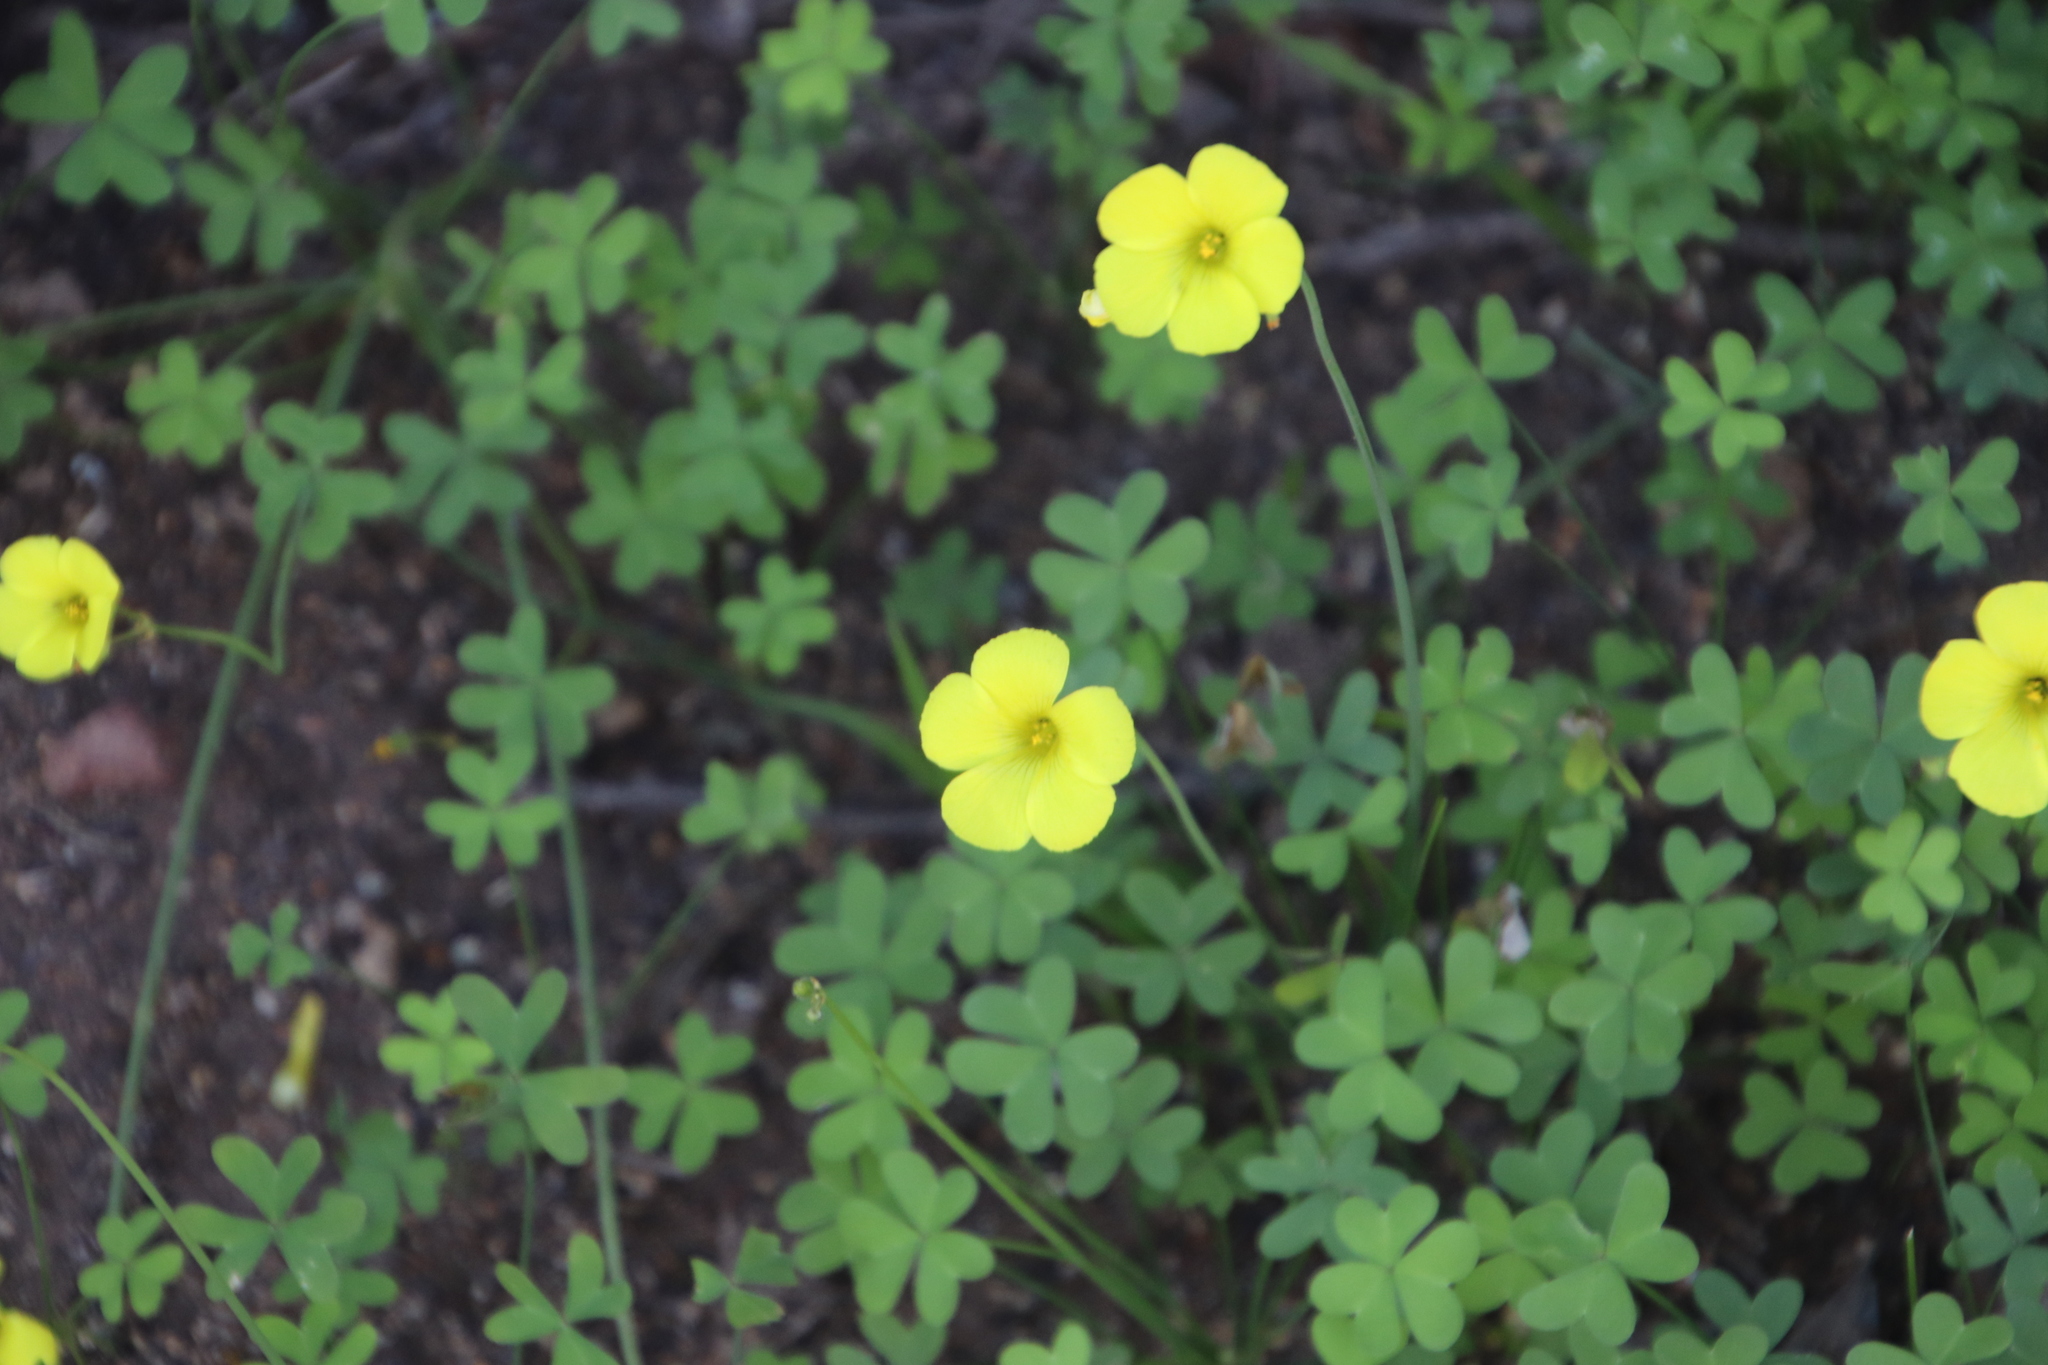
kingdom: Plantae
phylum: Tracheophyta
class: Magnoliopsida
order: Oxalidales
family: Oxalidaceae
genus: Oxalis
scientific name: Oxalis pes-caprae
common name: Bermuda-buttercup
